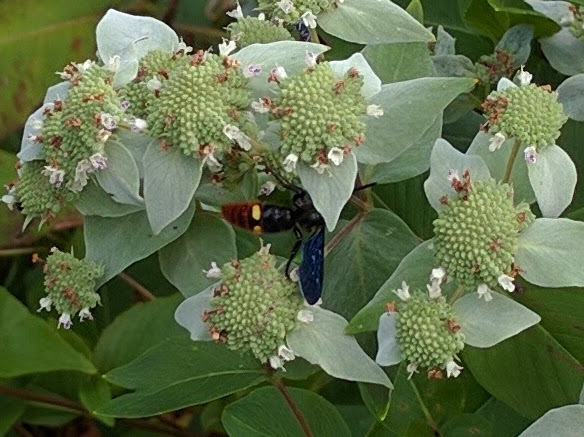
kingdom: Animalia
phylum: Arthropoda
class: Insecta
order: Hymenoptera
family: Scoliidae
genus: Scolia
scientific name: Scolia dubia
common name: Blue-winged scoliid wasp
